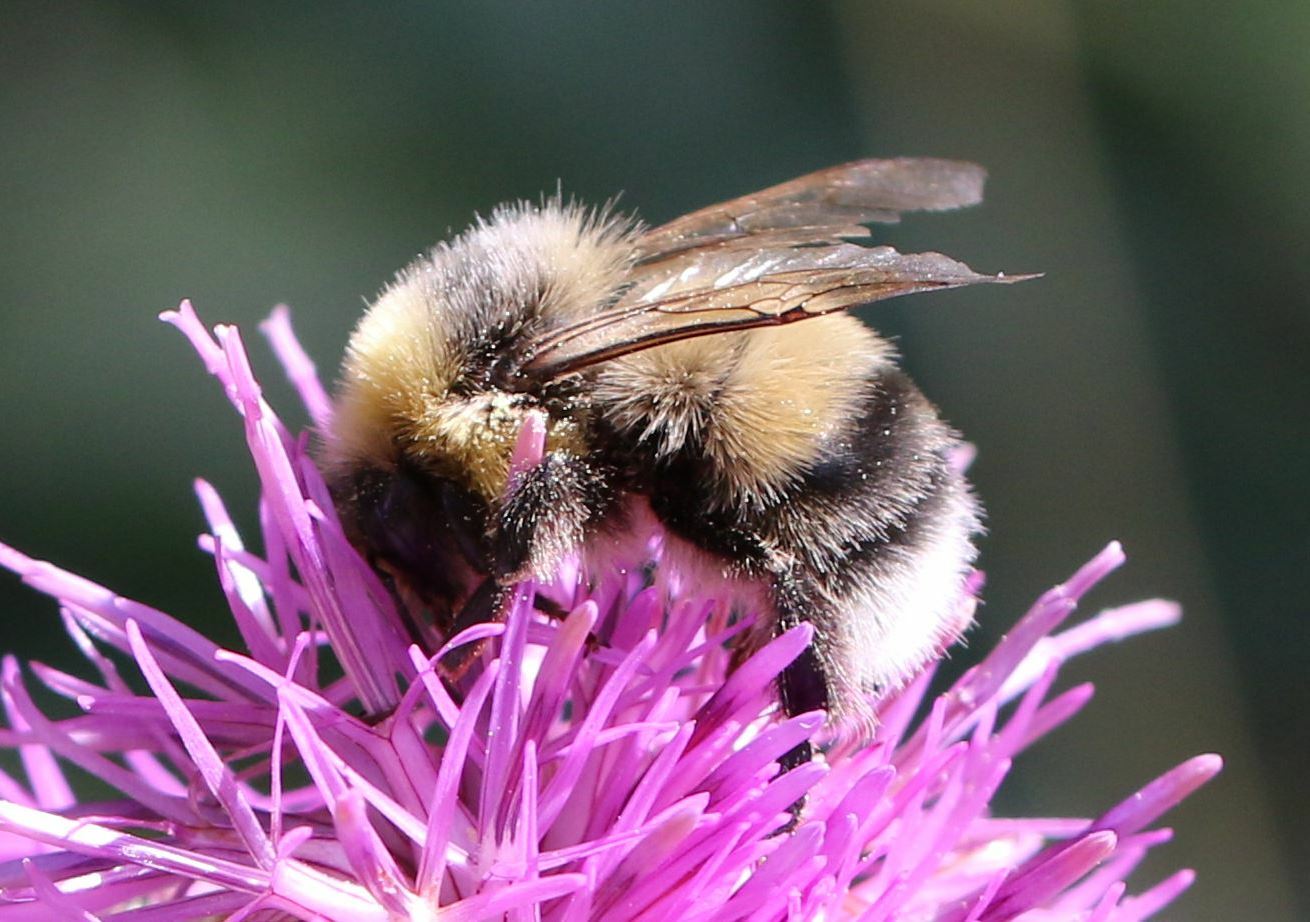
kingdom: Animalia
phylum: Arthropoda
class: Insecta
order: Hymenoptera
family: Apidae
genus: Bombus
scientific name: Bombus lucorum
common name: White-tailed bumblebee
